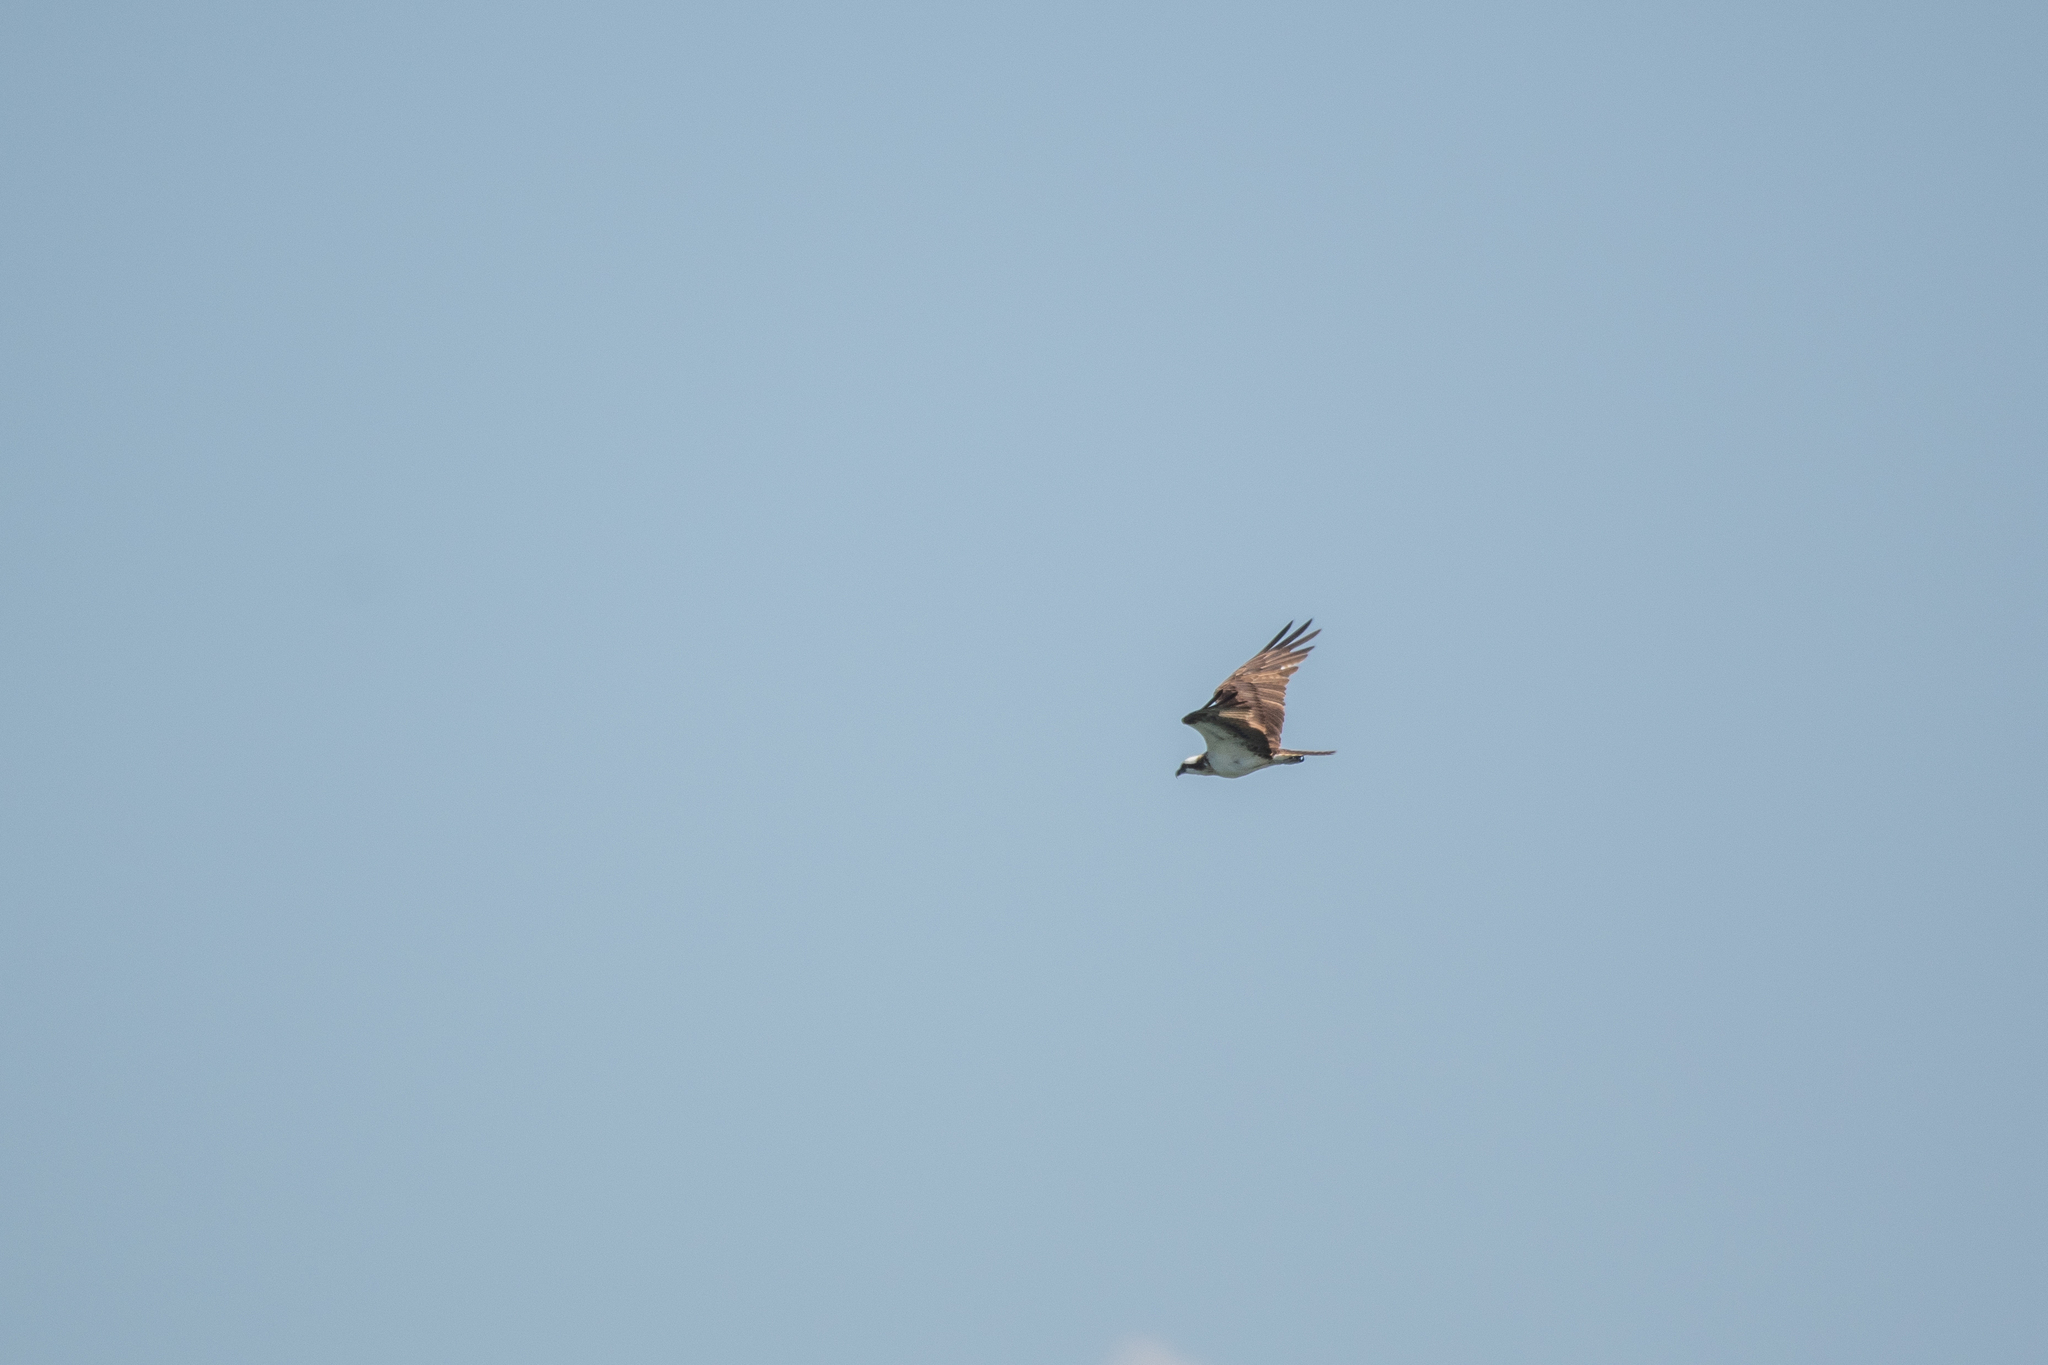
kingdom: Animalia
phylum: Chordata
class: Aves
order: Accipitriformes
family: Pandionidae
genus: Pandion
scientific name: Pandion haliaetus
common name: Osprey
